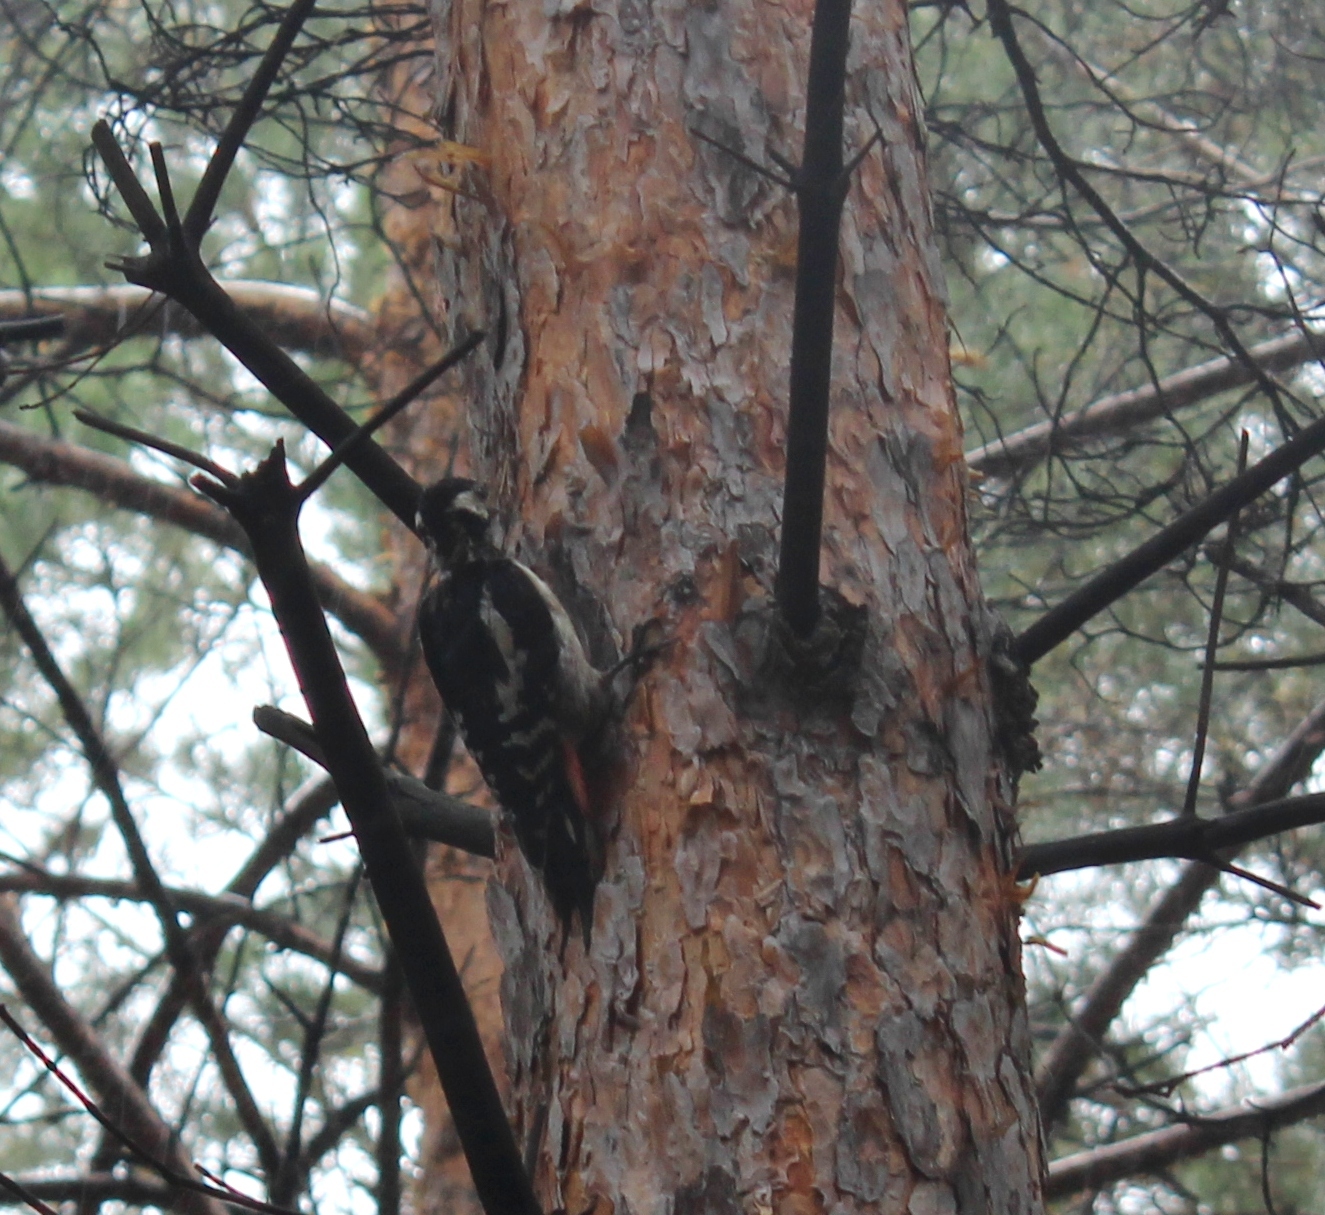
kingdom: Animalia
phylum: Chordata
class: Aves
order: Piciformes
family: Picidae
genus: Dendrocopos
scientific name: Dendrocopos major
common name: Great spotted woodpecker
